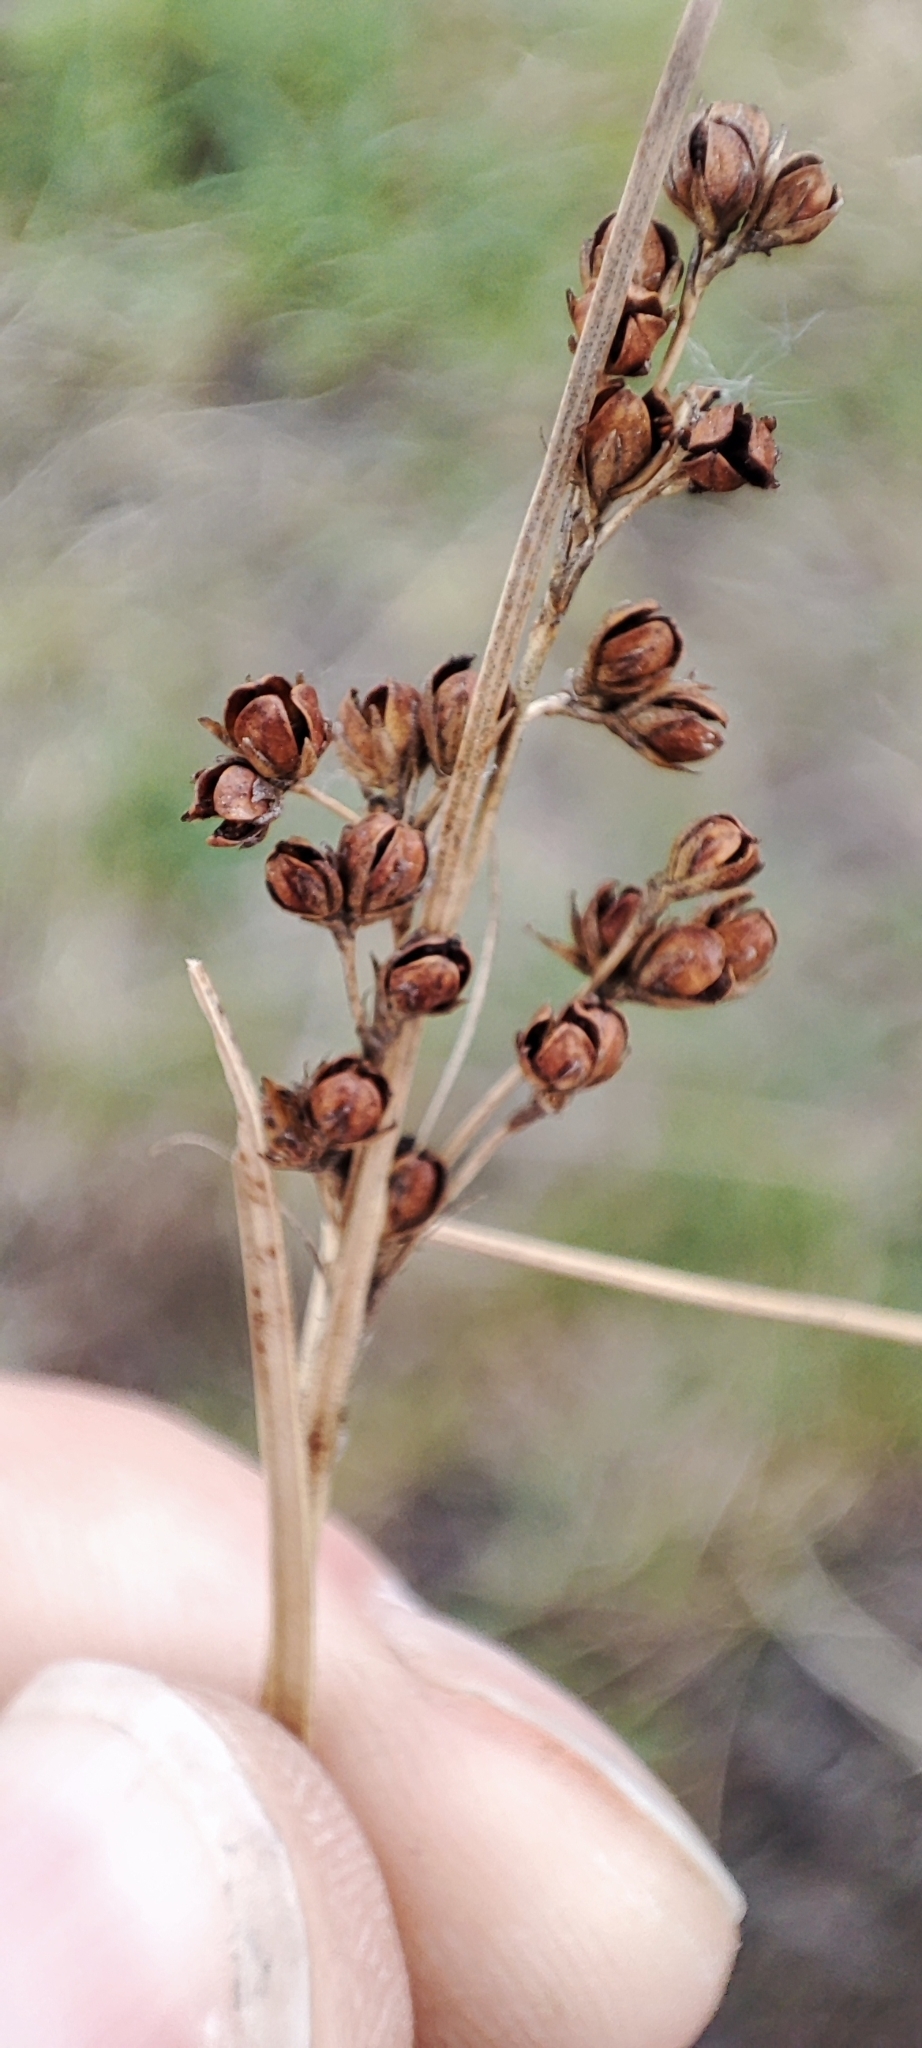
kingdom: Plantae
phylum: Tracheophyta
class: Liliopsida
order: Poales
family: Juncaceae
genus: Juncus
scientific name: Juncus compressus
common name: Round-fruited rush
